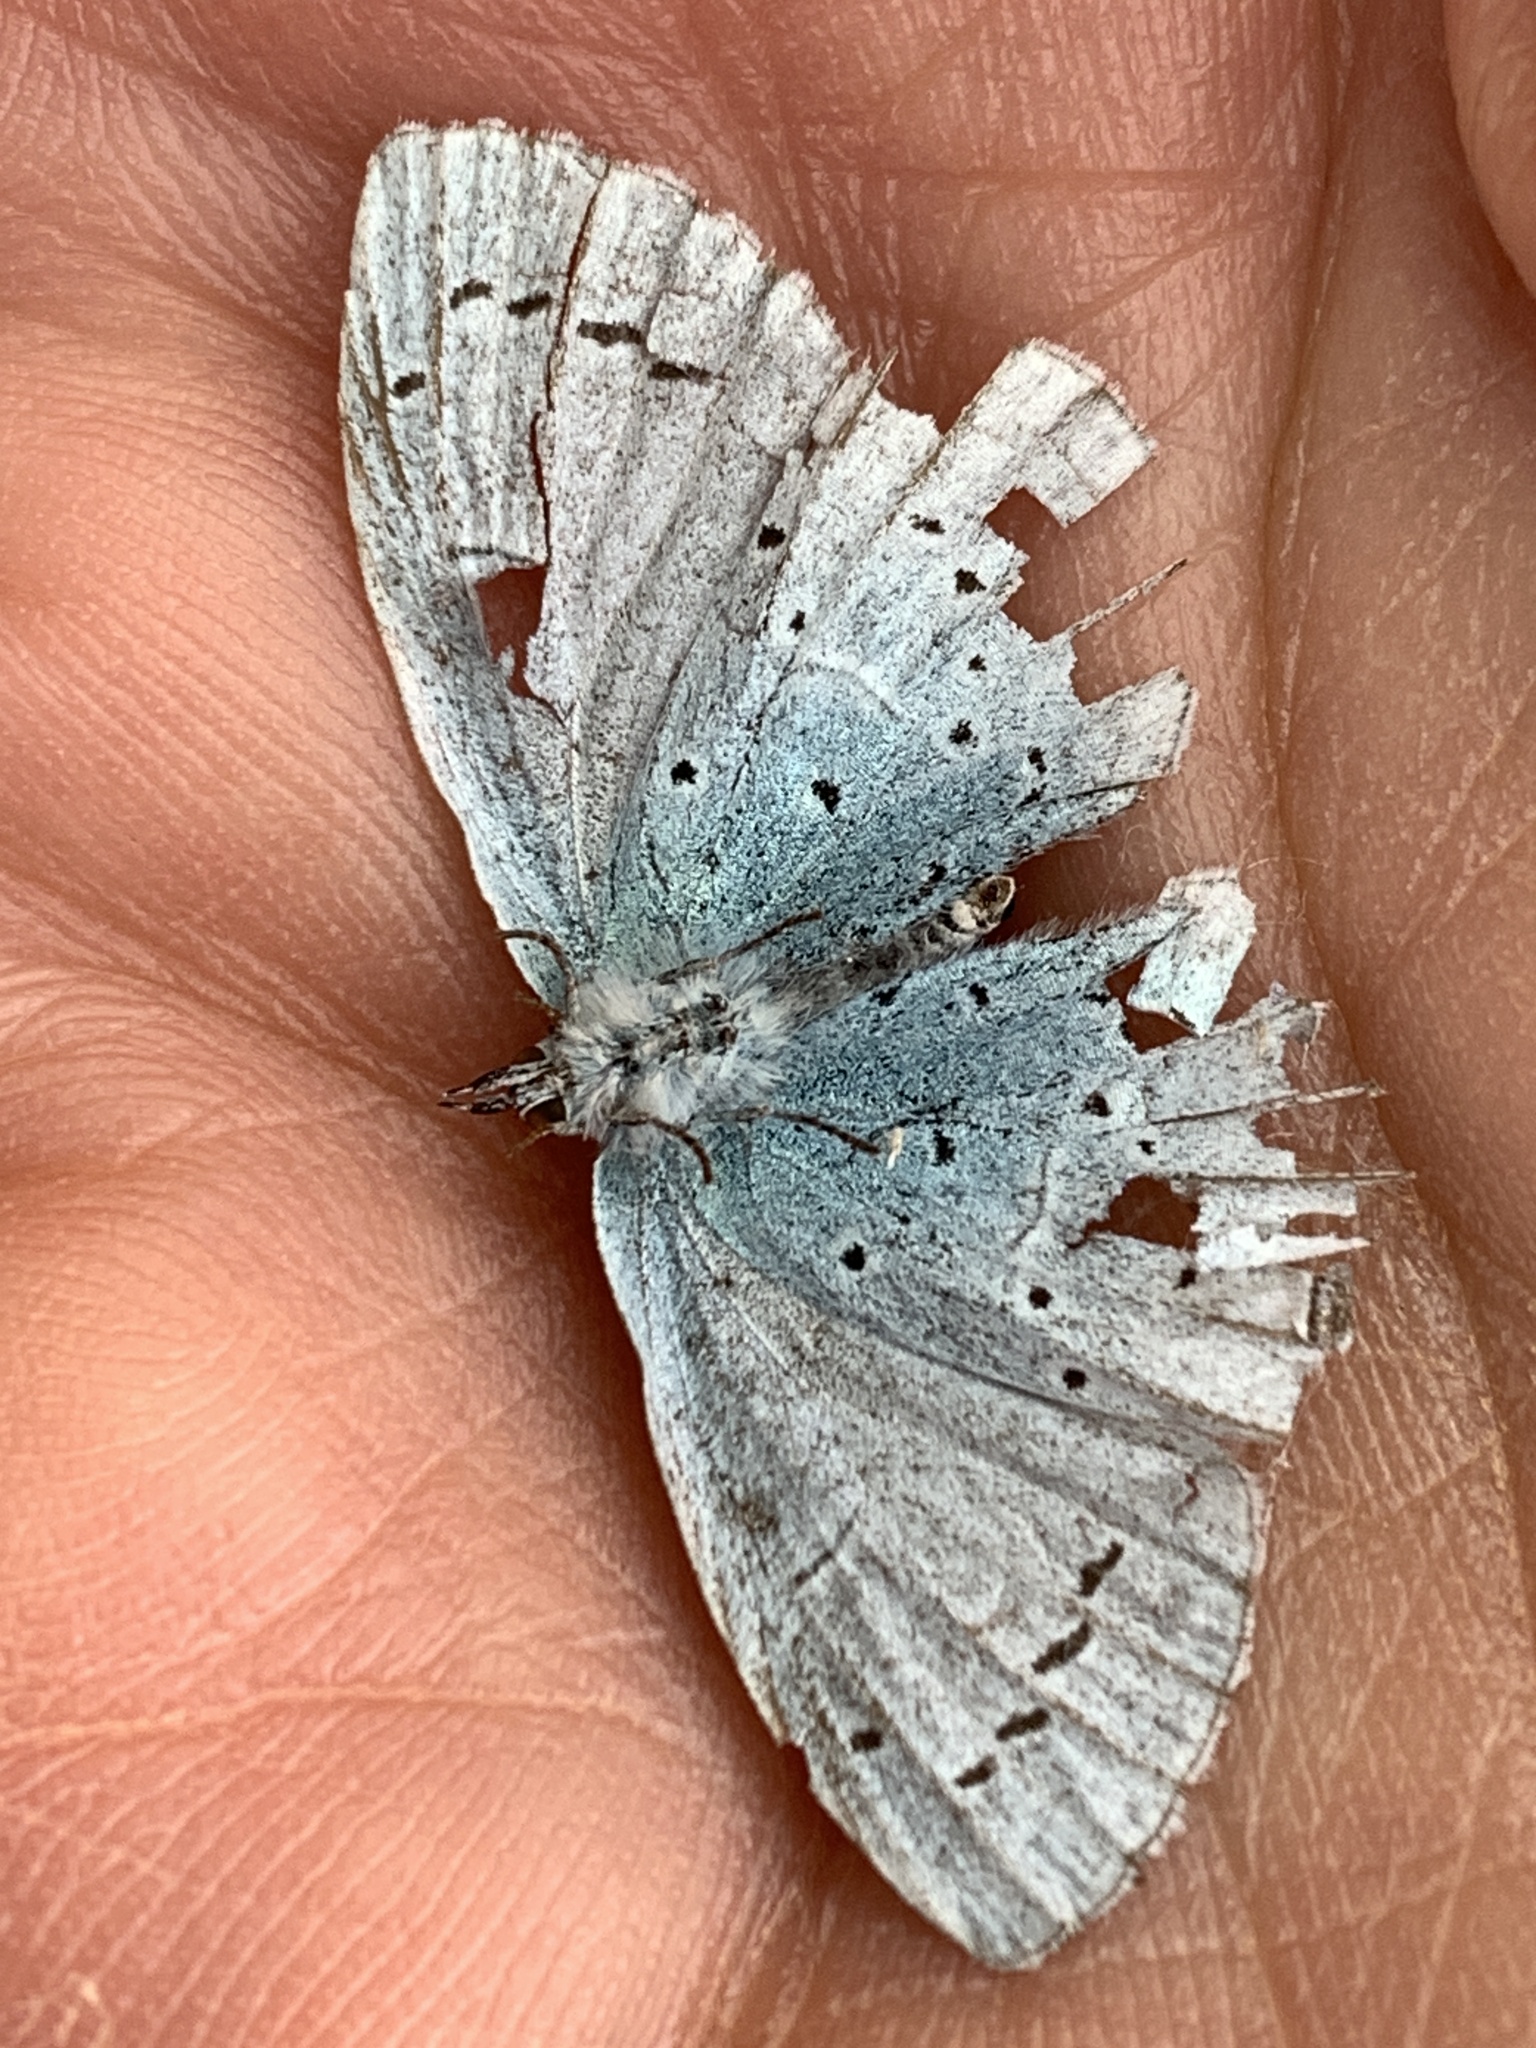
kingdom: Animalia
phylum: Arthropoda
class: Insecta
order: Lepidoptera
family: Lycaenidae
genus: Celastrina
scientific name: Celastrina argiolus
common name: Holly blue
